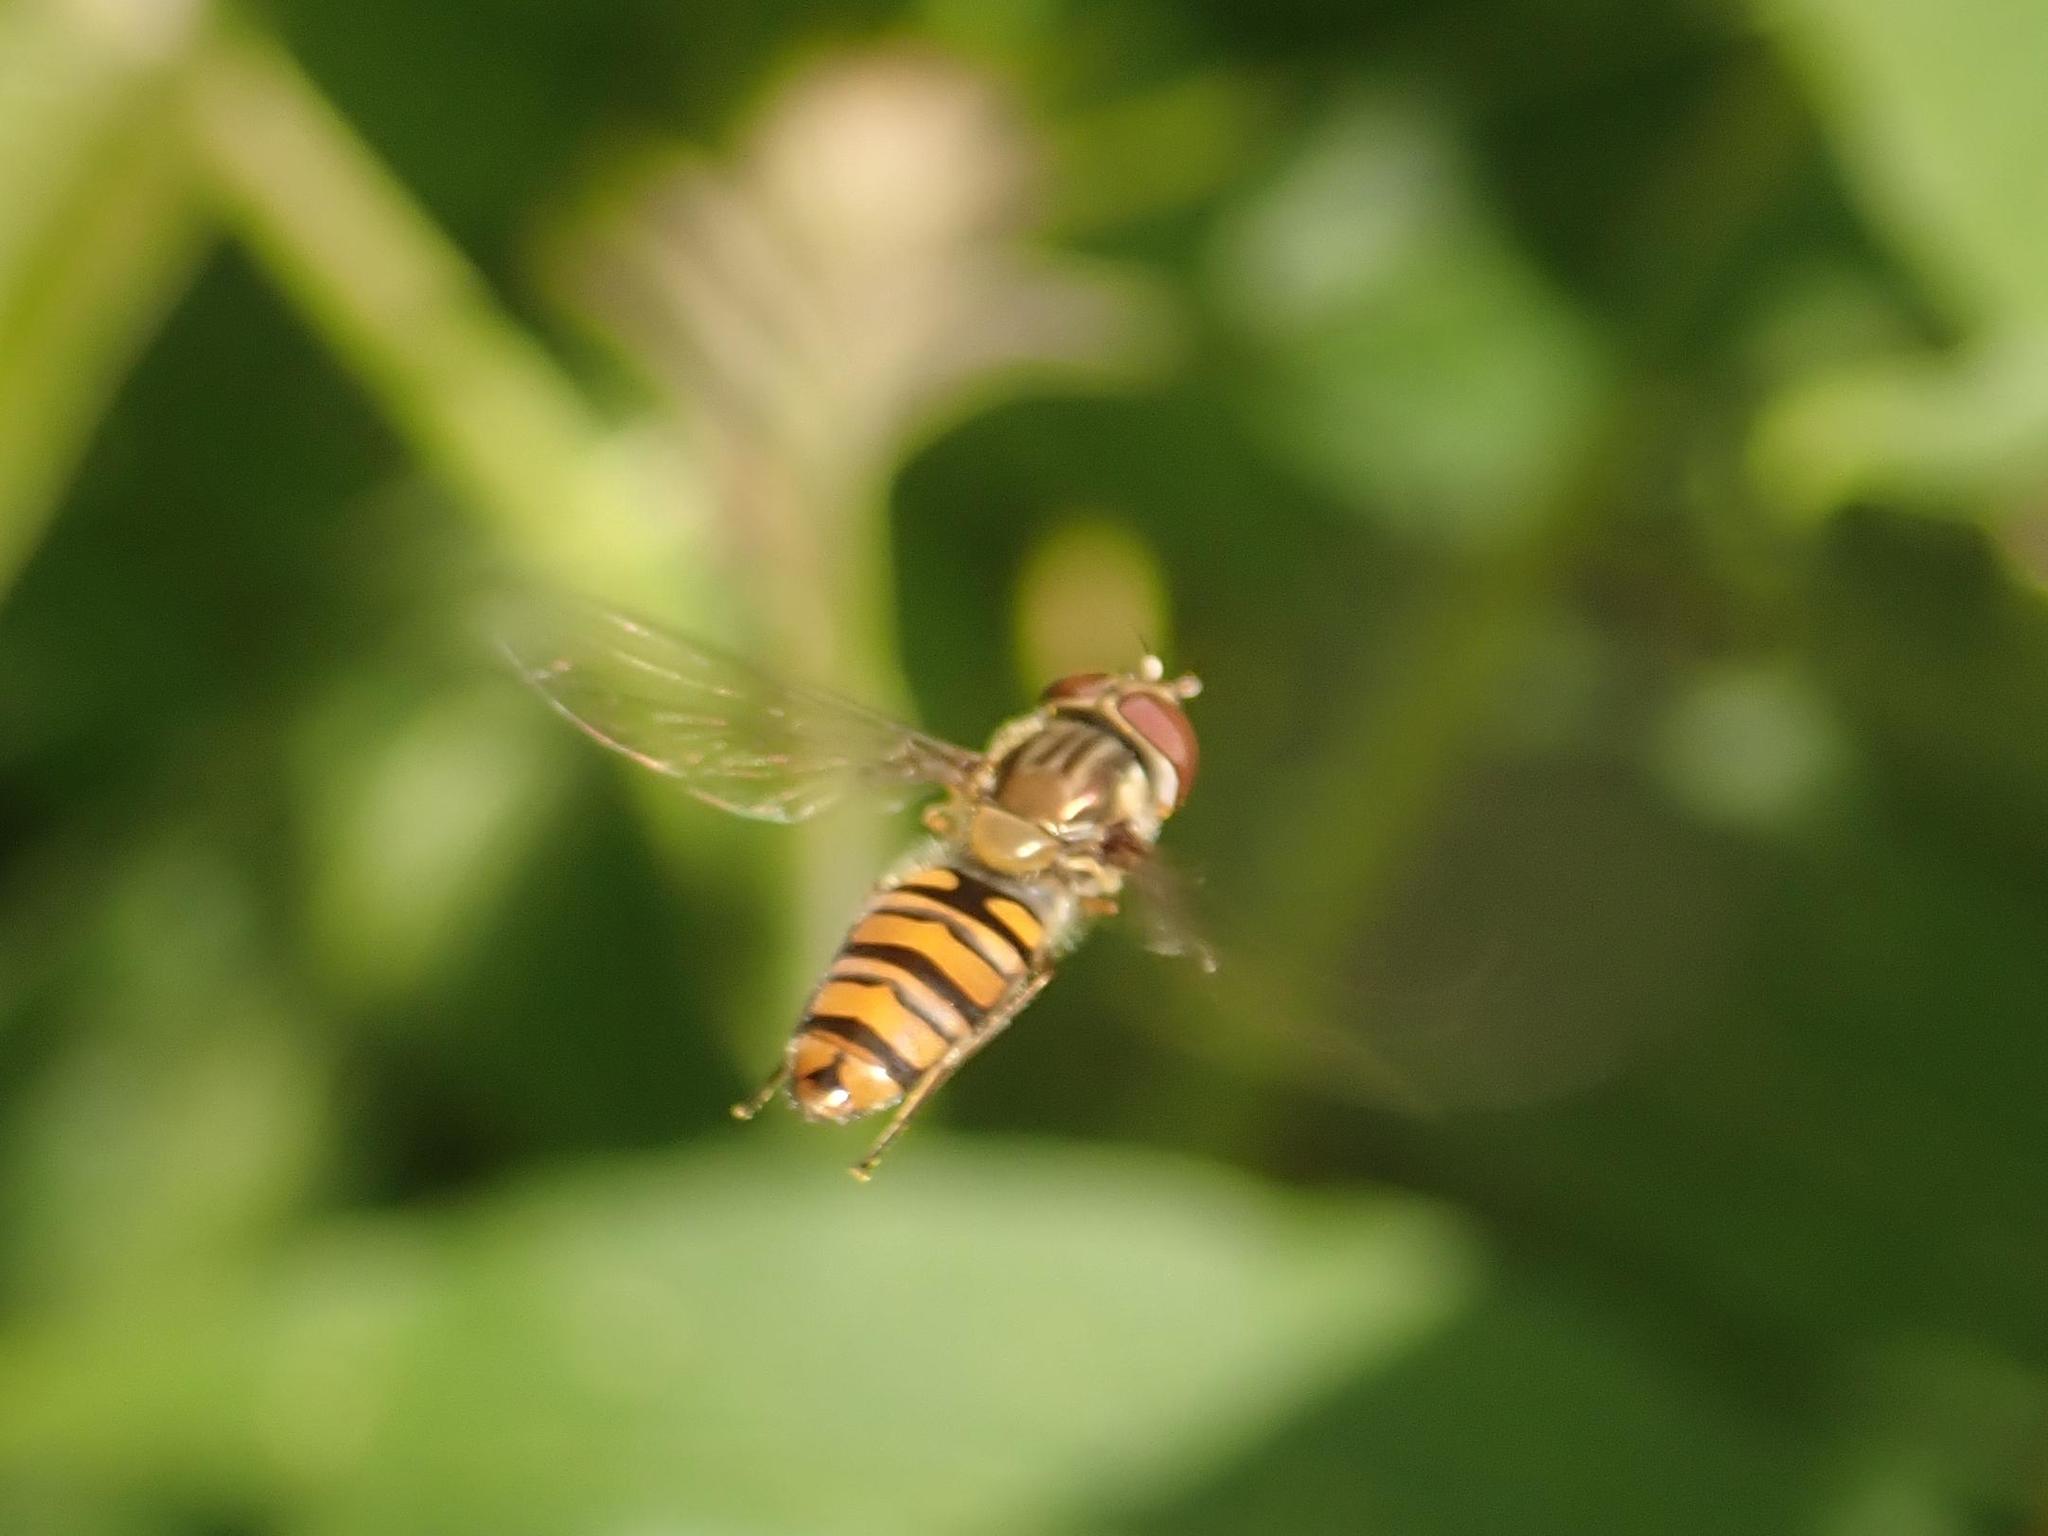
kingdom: Animalia
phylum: Arthropoda
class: Insecta
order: Diptera
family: Syrphidae
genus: Episyrphus
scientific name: Episyrphus balteatus
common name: Marmalade hoverfly
